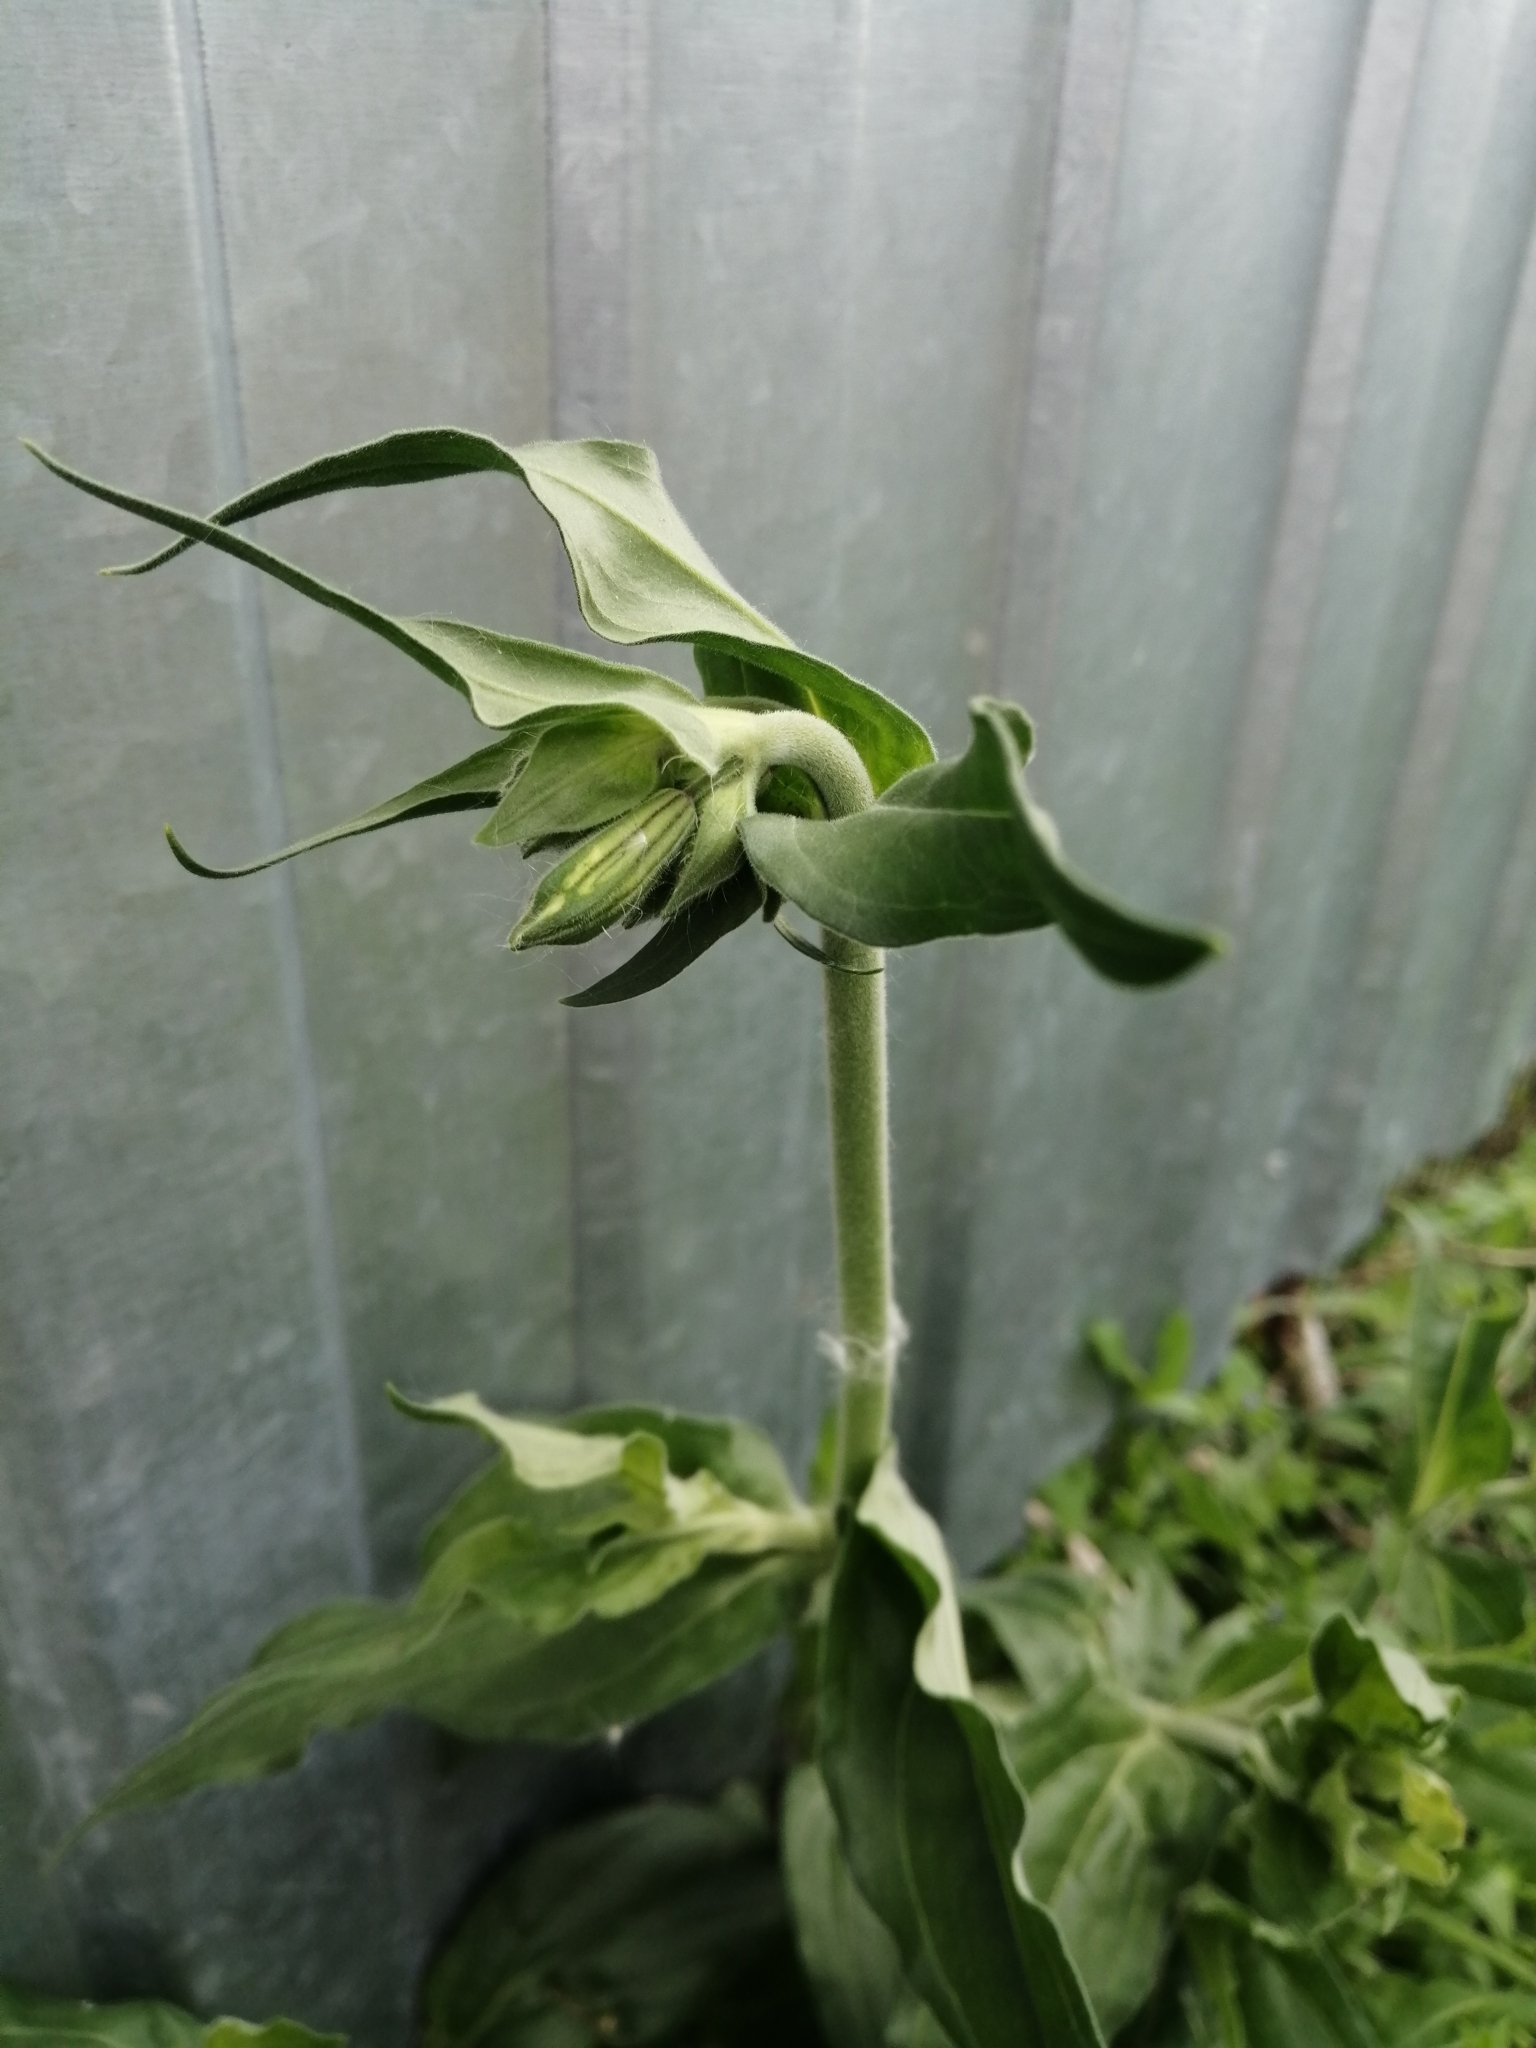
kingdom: Plantae
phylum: Tracheophyta
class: Magnoliopsida
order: Caryophyllales
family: Caryophyllaceae
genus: Silene
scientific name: Silene latifolia
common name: White campion
